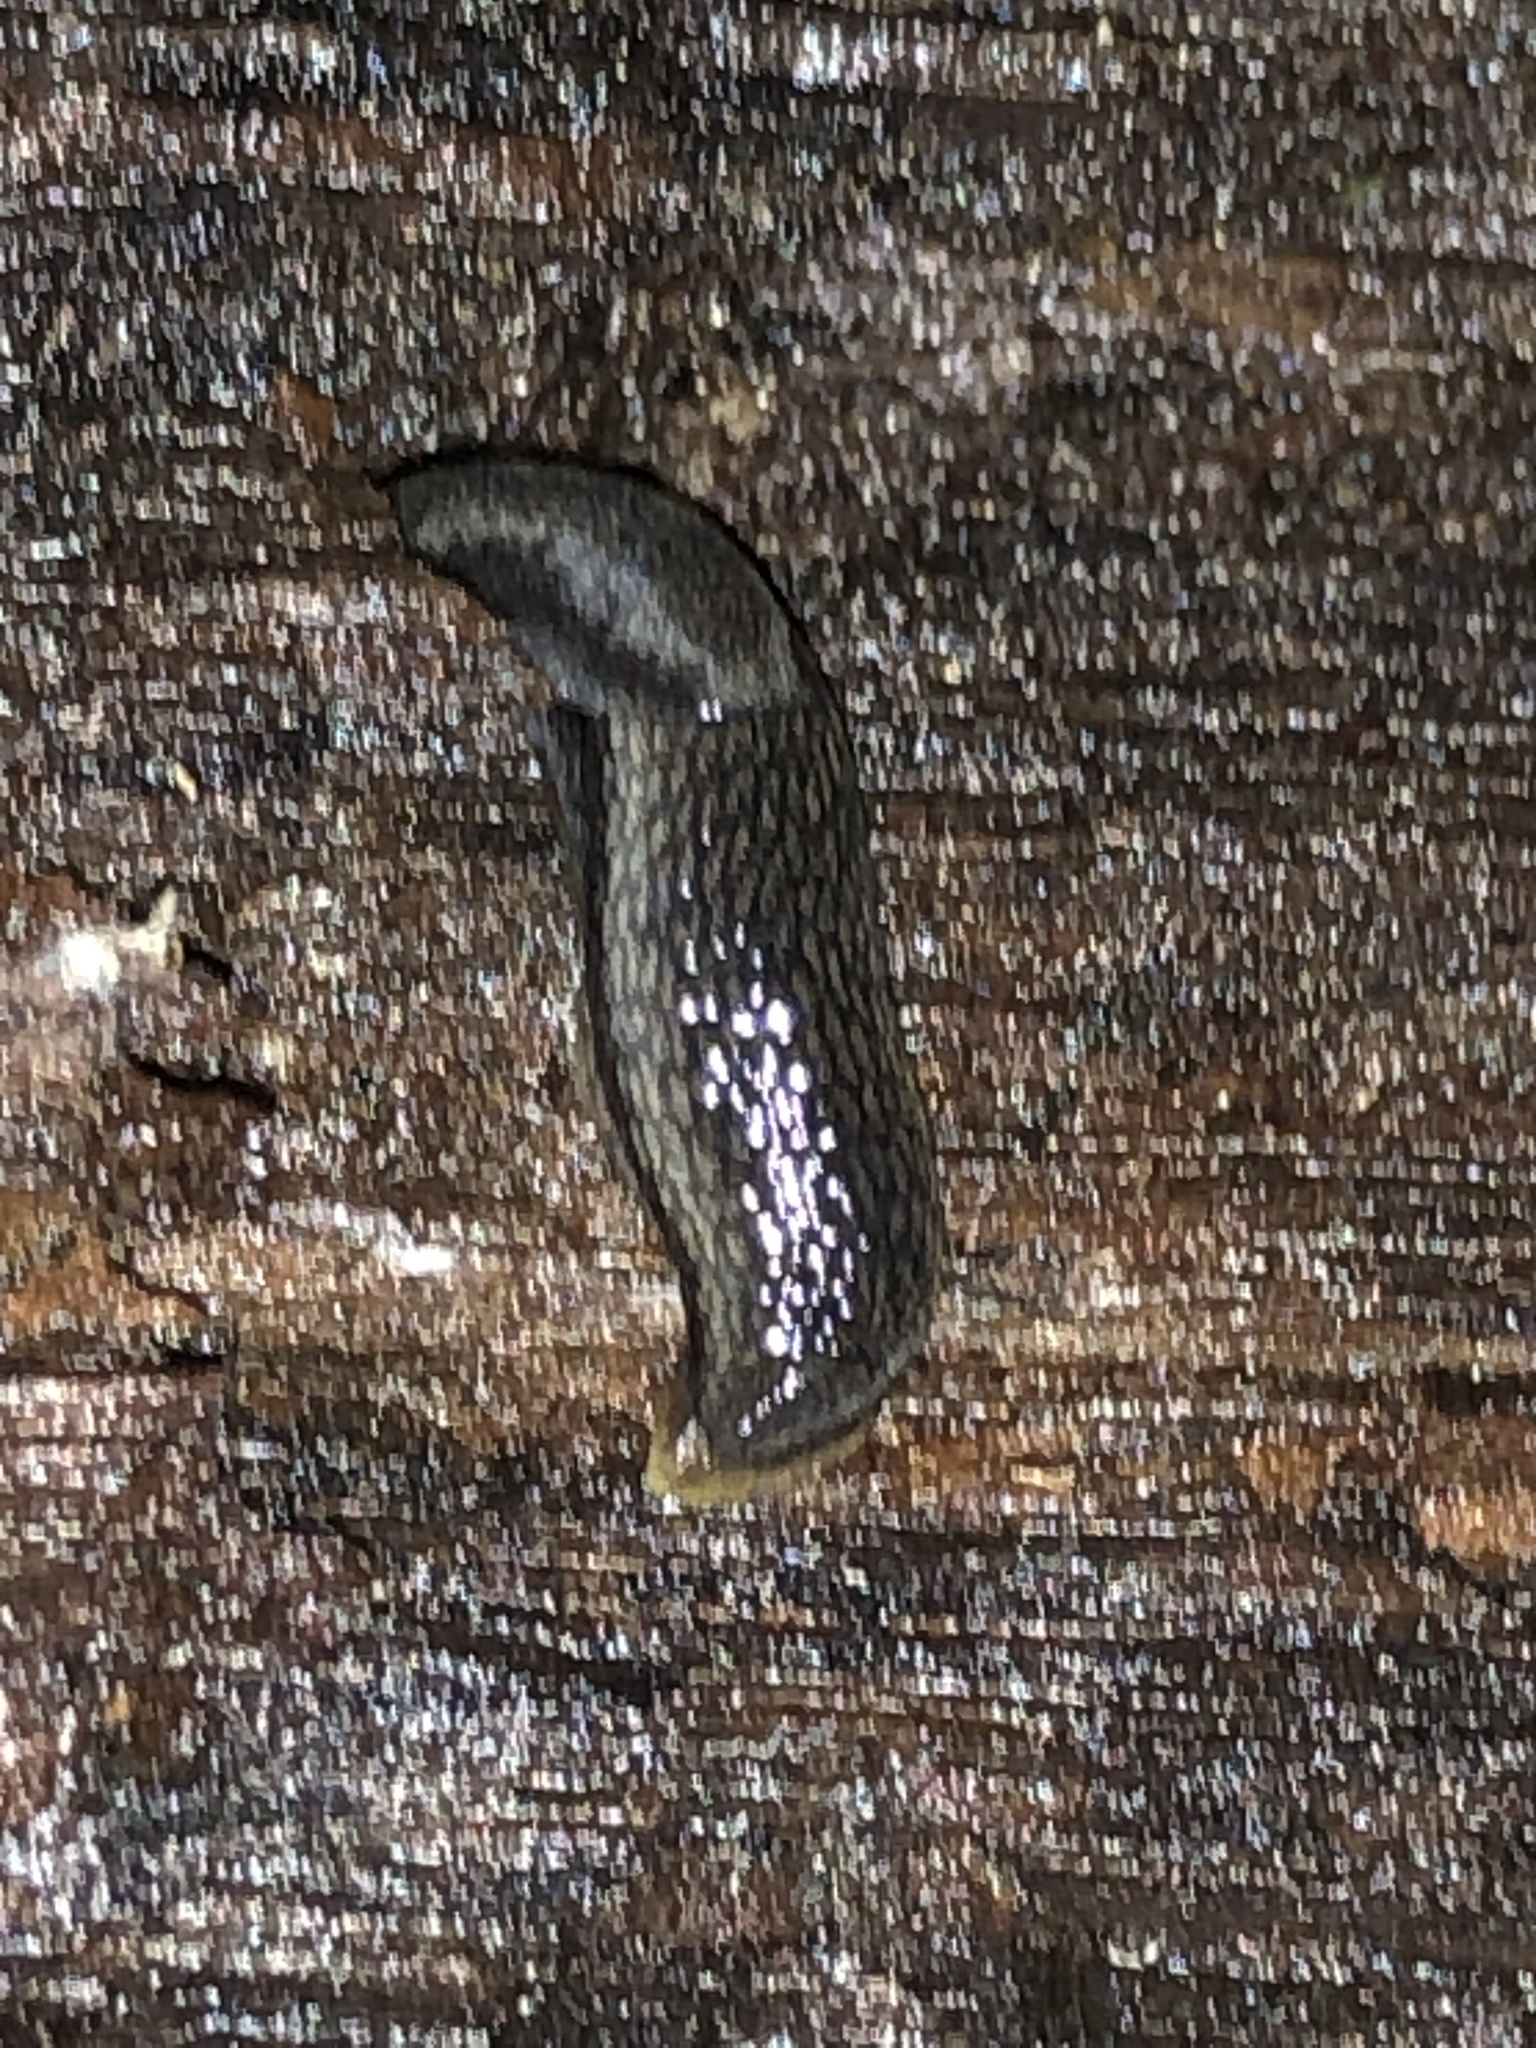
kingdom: Animalia
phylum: Mollusca
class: Gastropoda
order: Stylommatophora
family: Arionidae
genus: Arion
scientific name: Arion hortensis
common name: Garden arion
